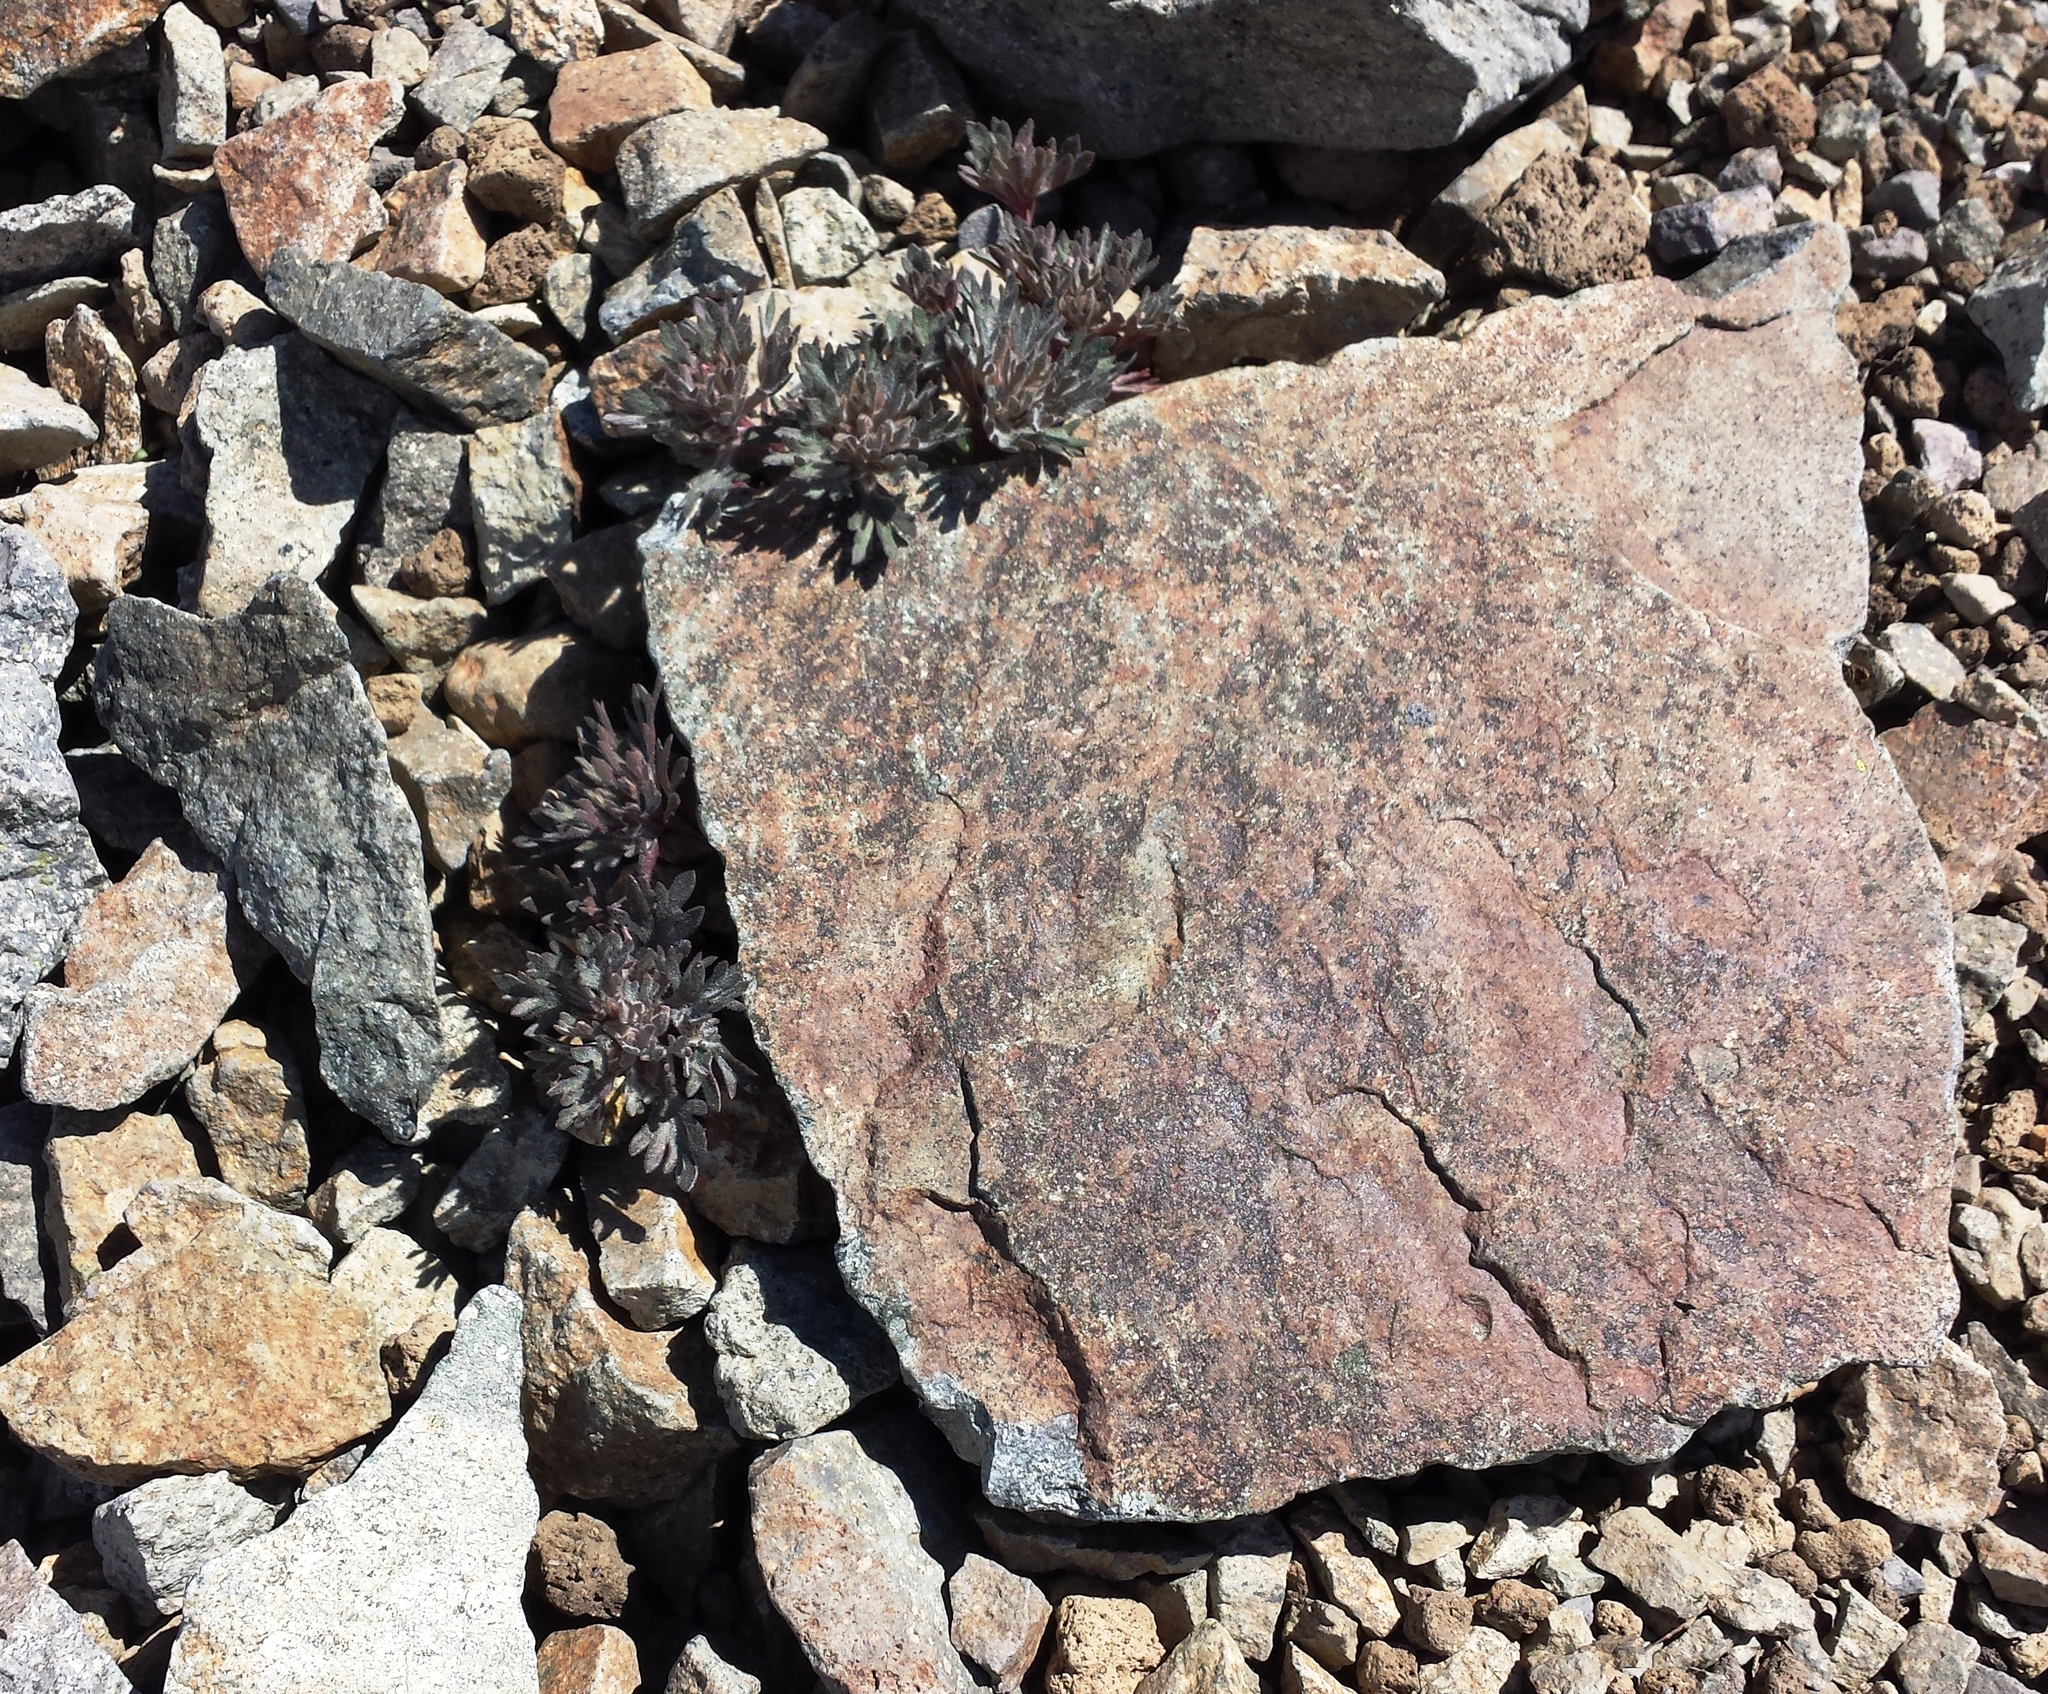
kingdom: Plantae
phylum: Tracheophyta
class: Magnoliopsida
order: Ericales
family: Polemoniaceae
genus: Collomia
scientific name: Collomia larsenii
